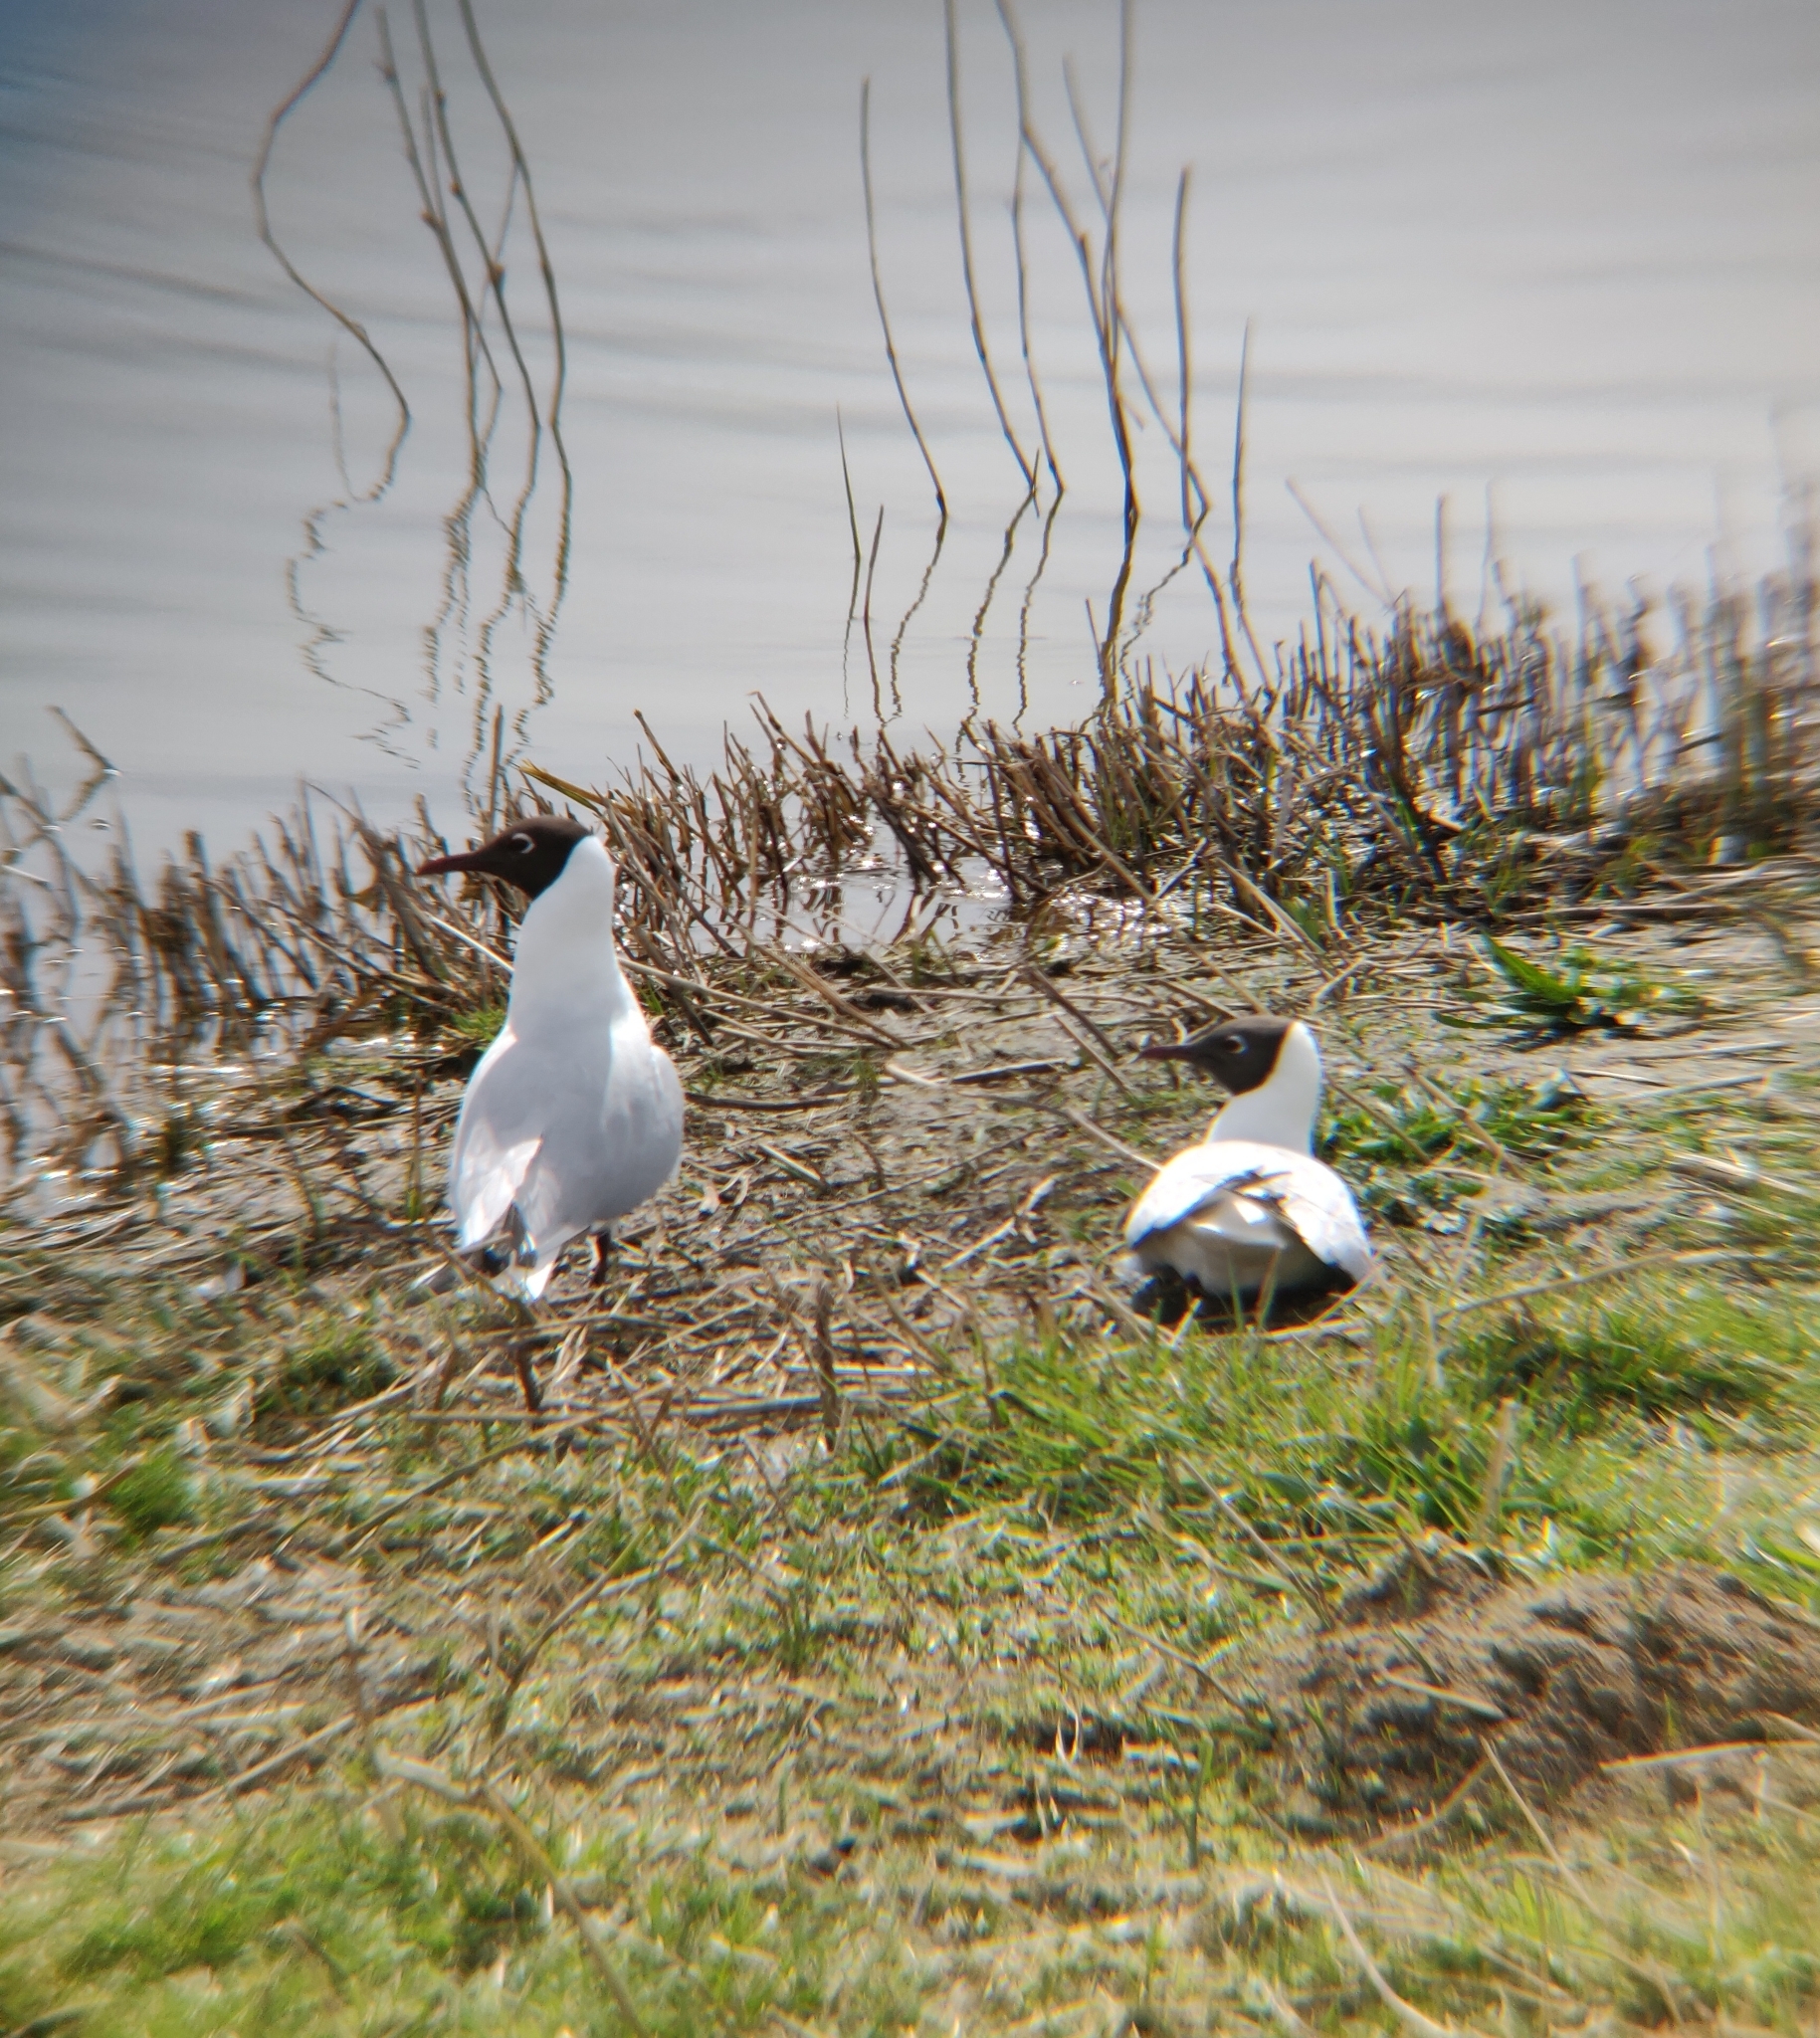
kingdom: Animalia
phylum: Chordata
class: Aves
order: Charadriiformes
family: Laridae
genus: Chroicocephalus
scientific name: Chroicocephalus ridibundus
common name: Black-headed gull
